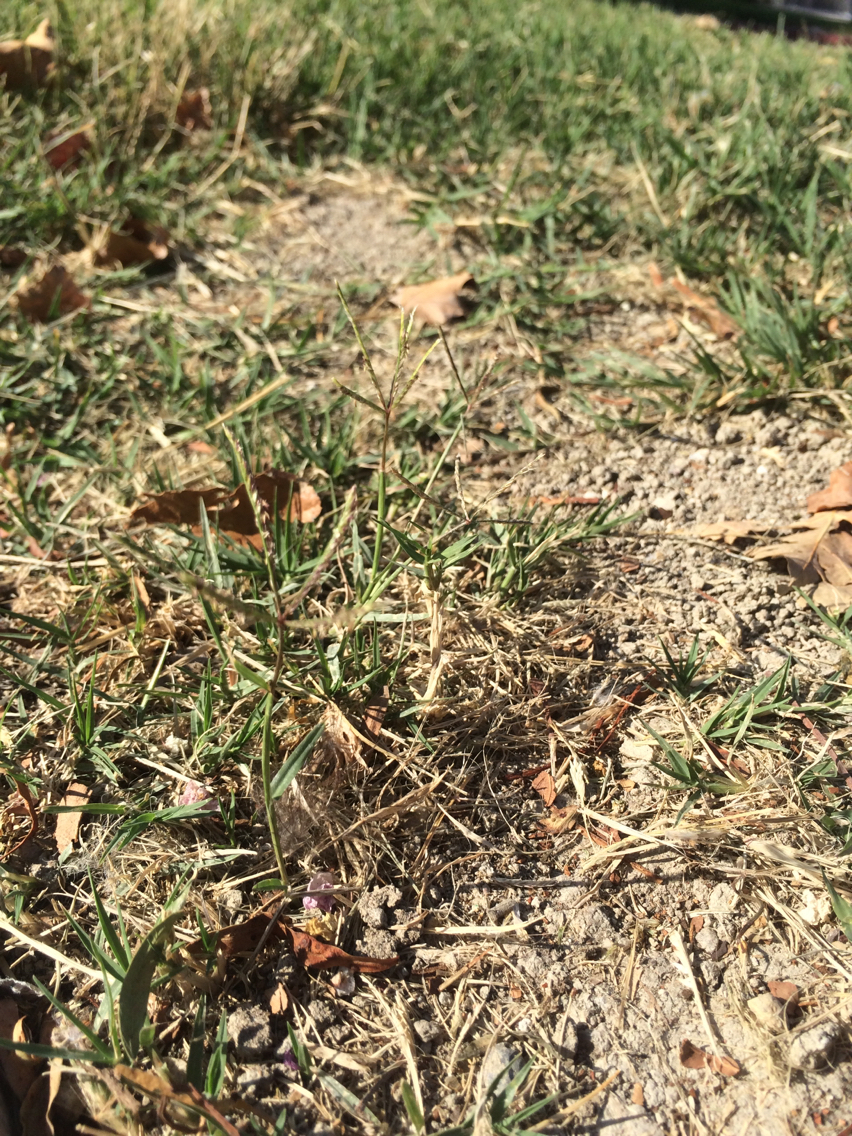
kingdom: Plantae
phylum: Tracheophyta
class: Liliopsida
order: Poales
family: Poaceae
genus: Cynodon
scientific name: Cynodon dactylon
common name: Bermuda grass
